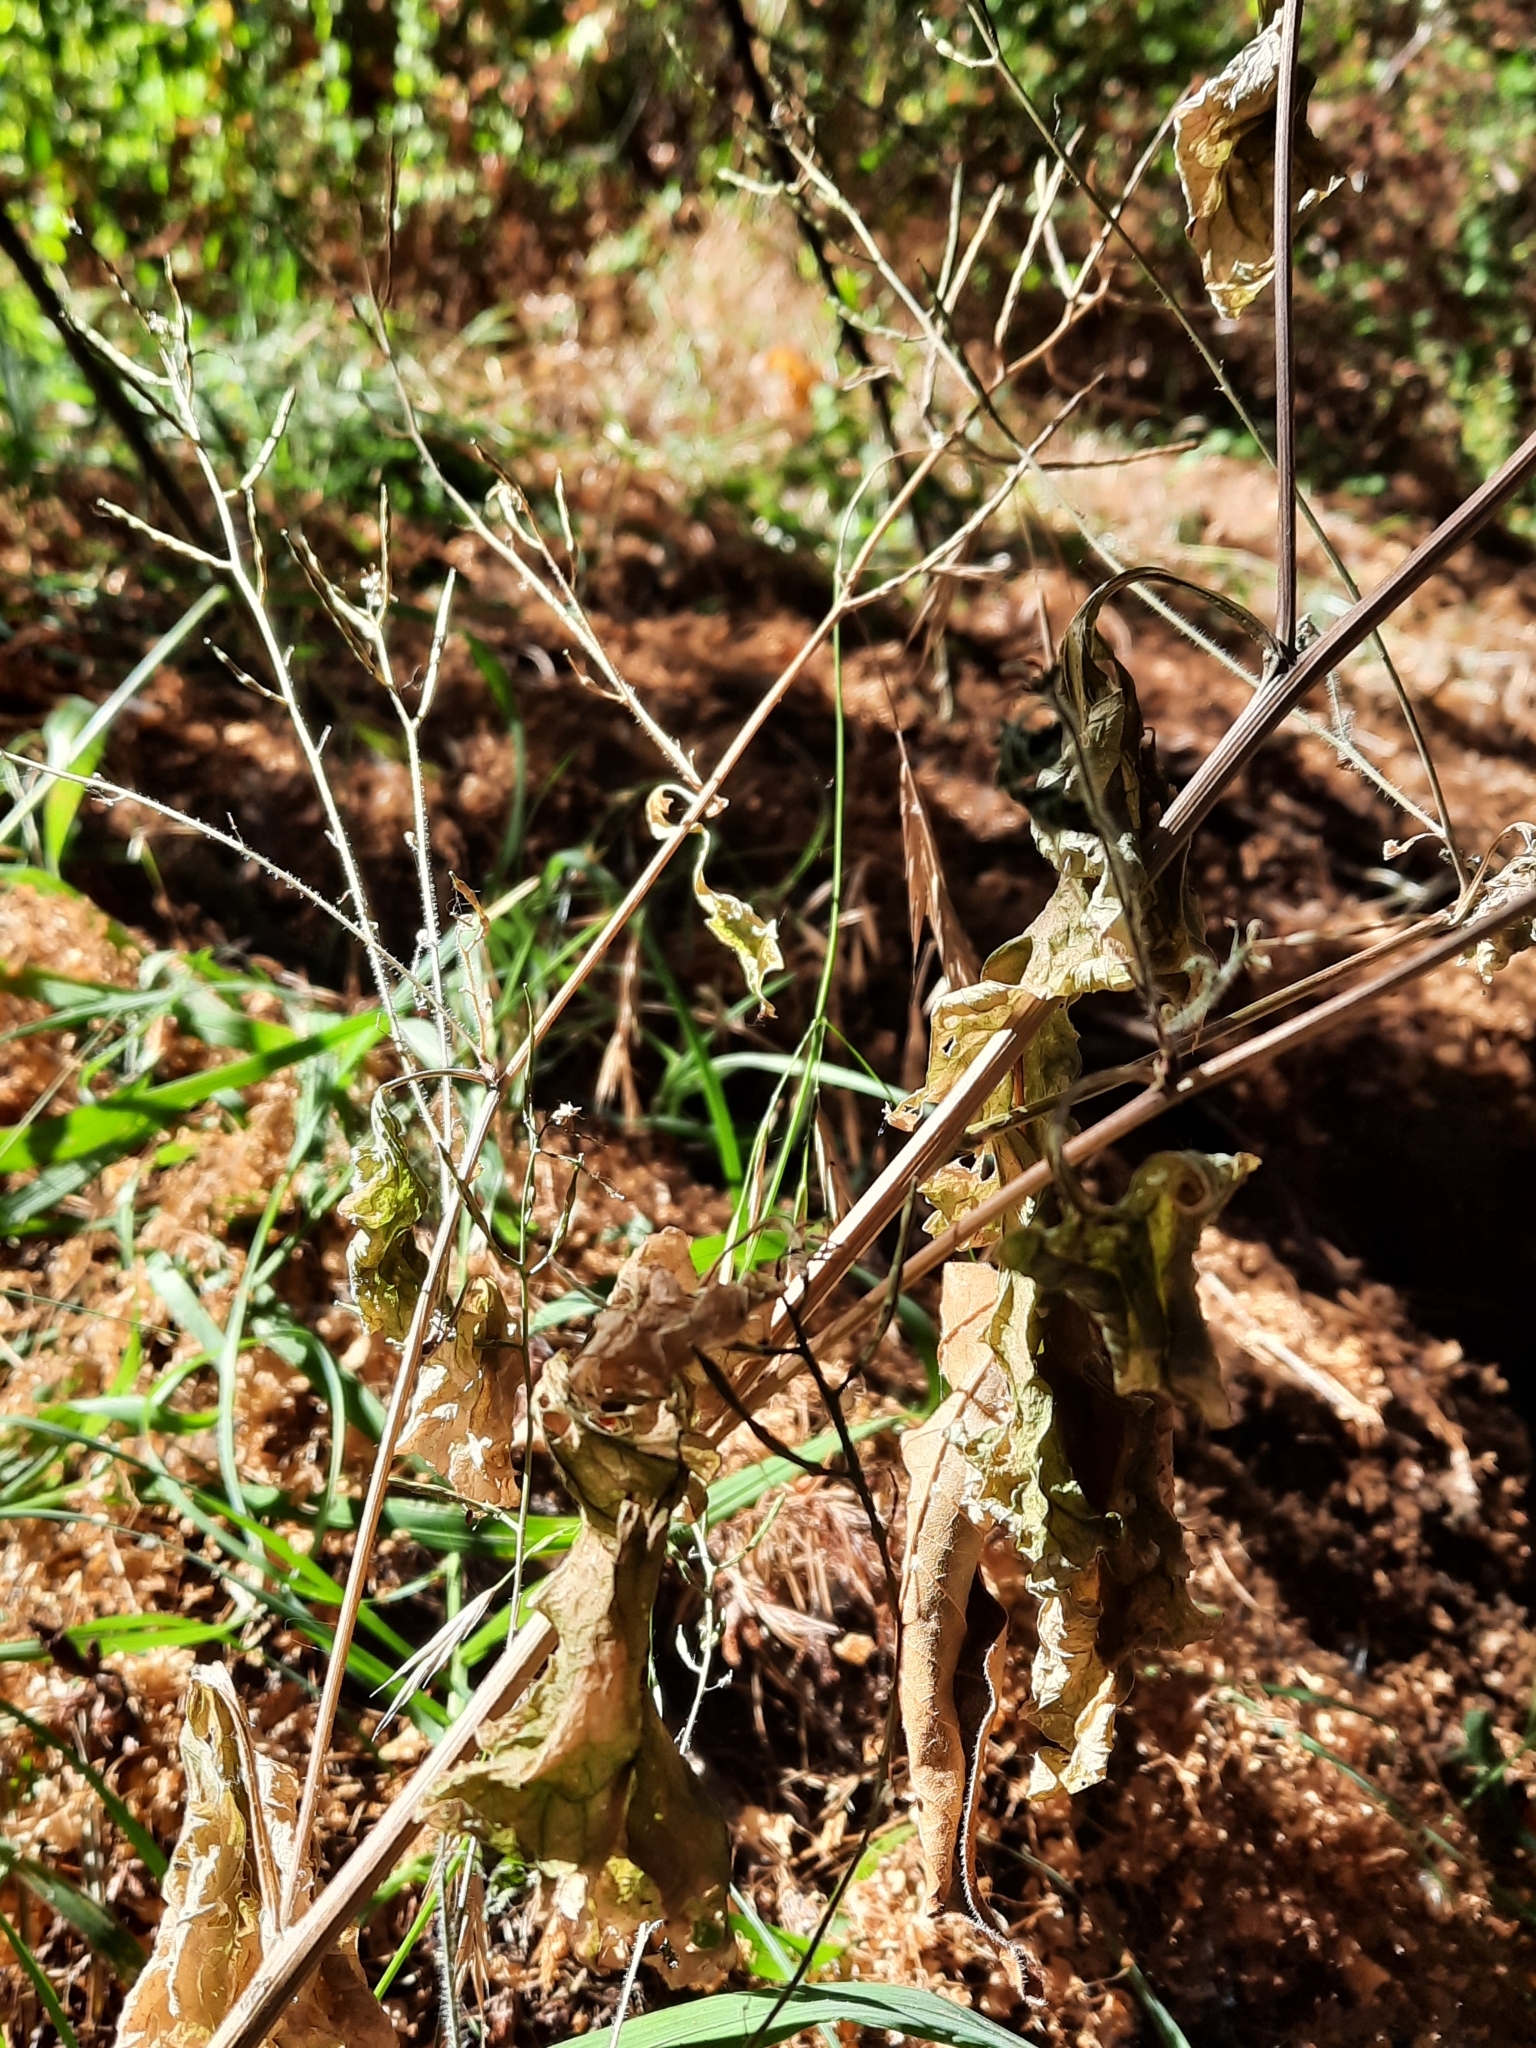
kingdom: Plantae
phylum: Tracheophyta
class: Magnoliopsida
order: Brassicales
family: Brassicaceae
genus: Alliaria
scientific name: Alliaria petiolata
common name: Garlic mustard
